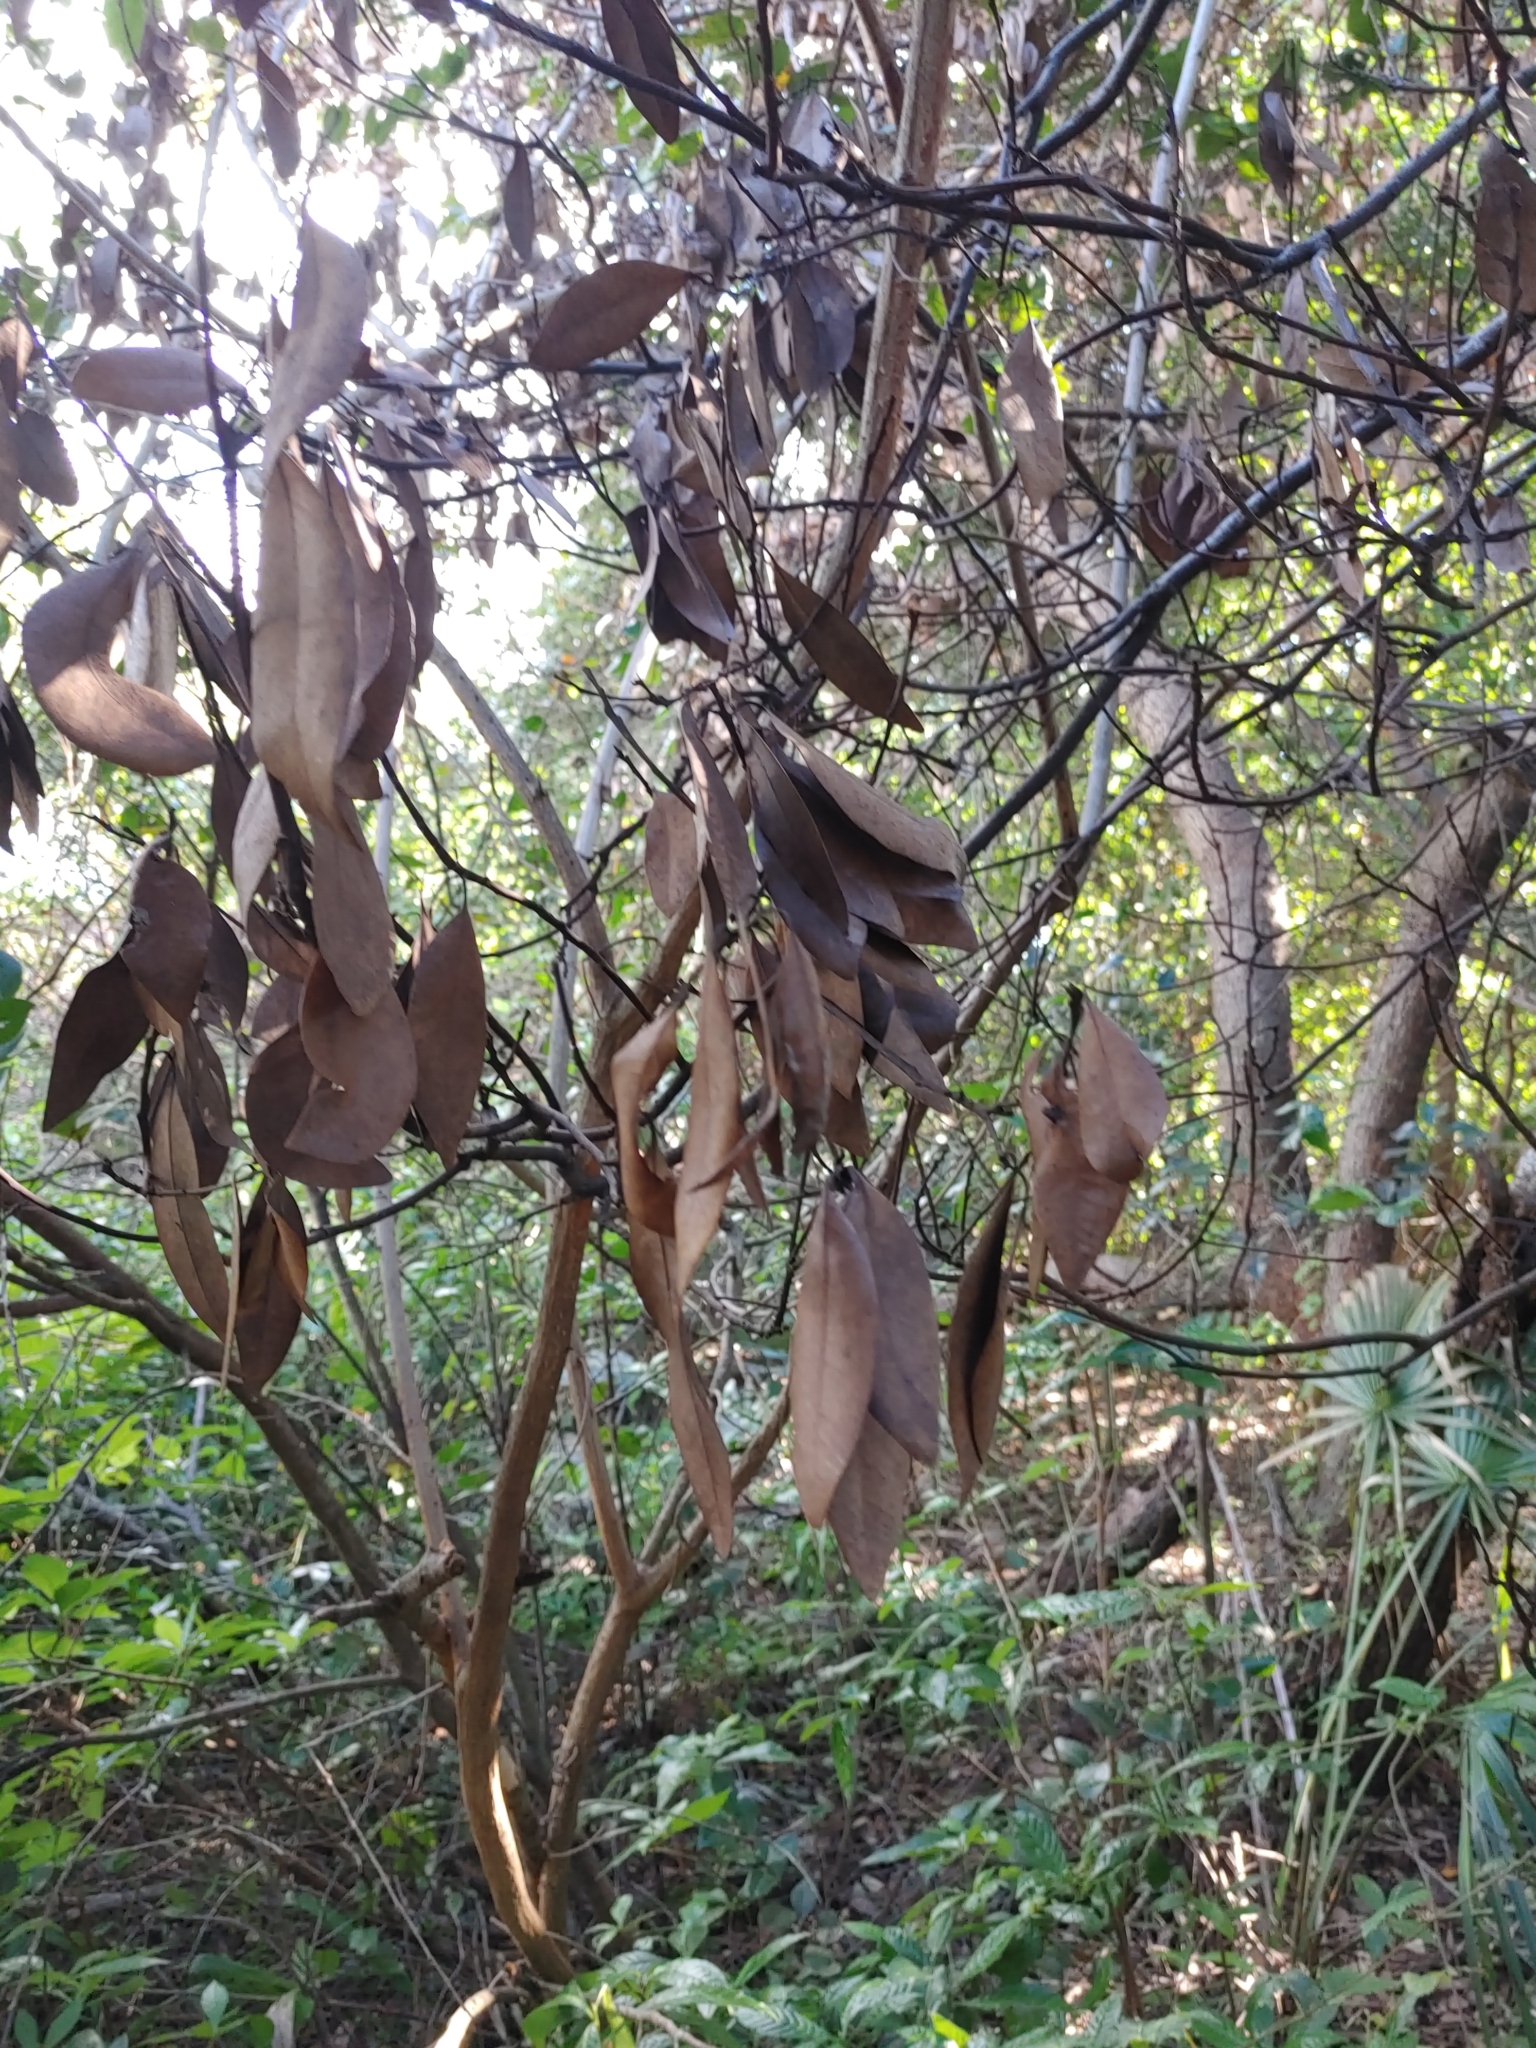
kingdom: Fungi
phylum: Ascomycota
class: Sordariomycetes
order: Ophiostomatales
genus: Harringtonia
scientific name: Harringtonia lauricola
